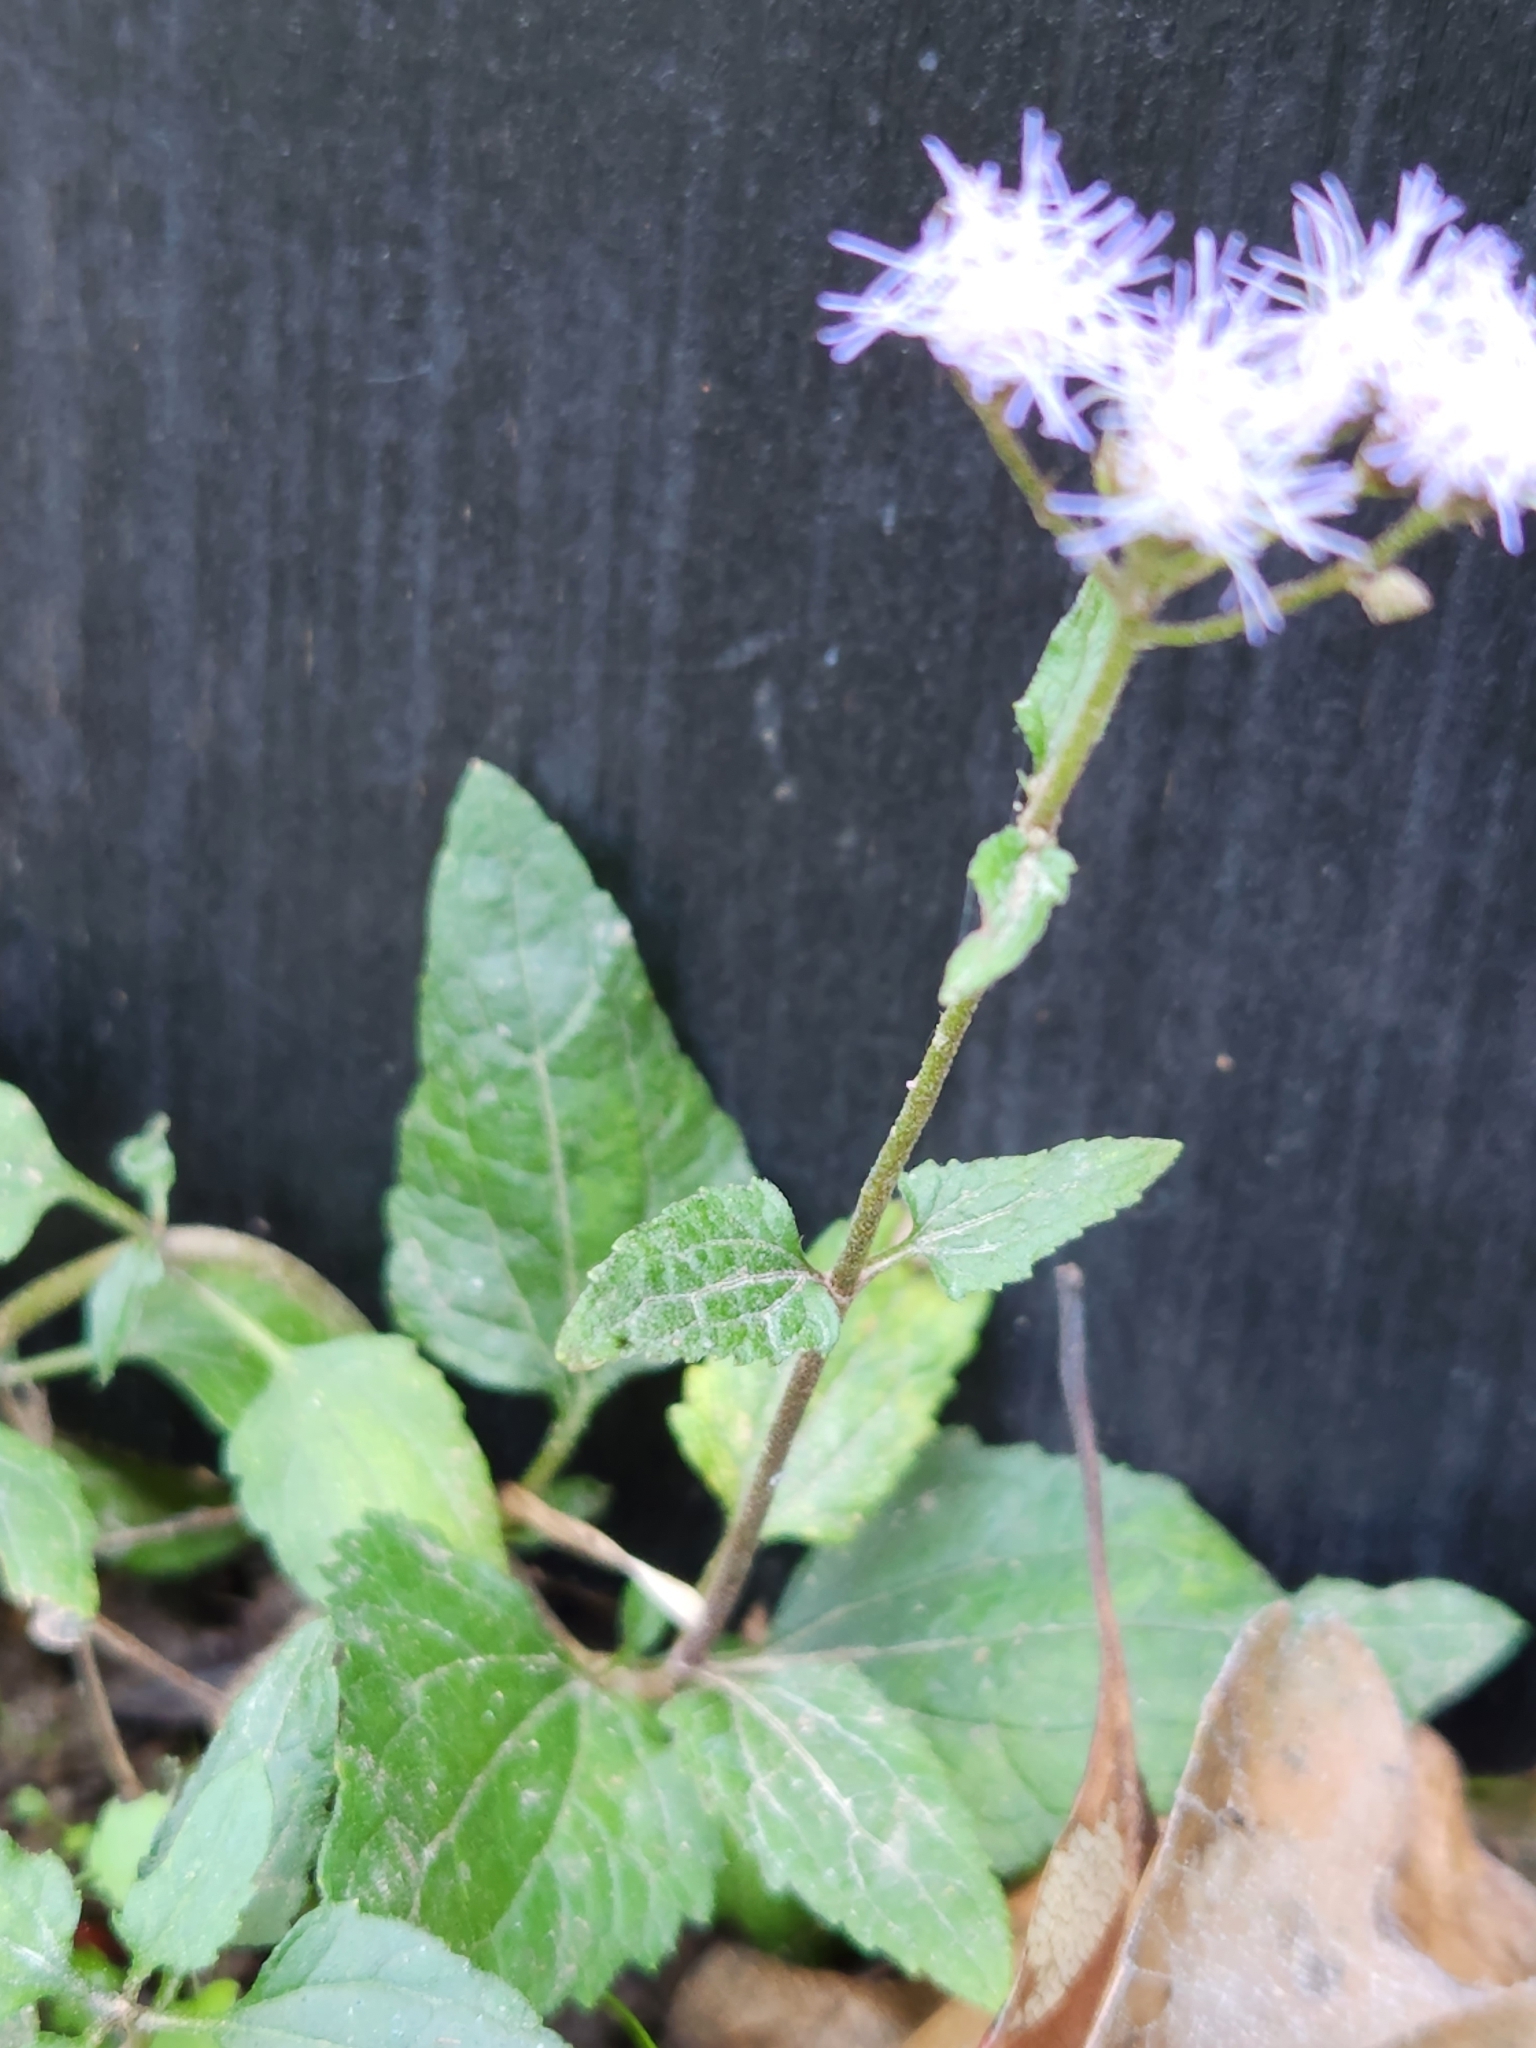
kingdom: Plantae
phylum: Tracheophyta
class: Magnoliopsida
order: Asterales
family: Asteraceae
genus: Conoclinium
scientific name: Conoclinium coelestinum
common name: Blue mistflower
